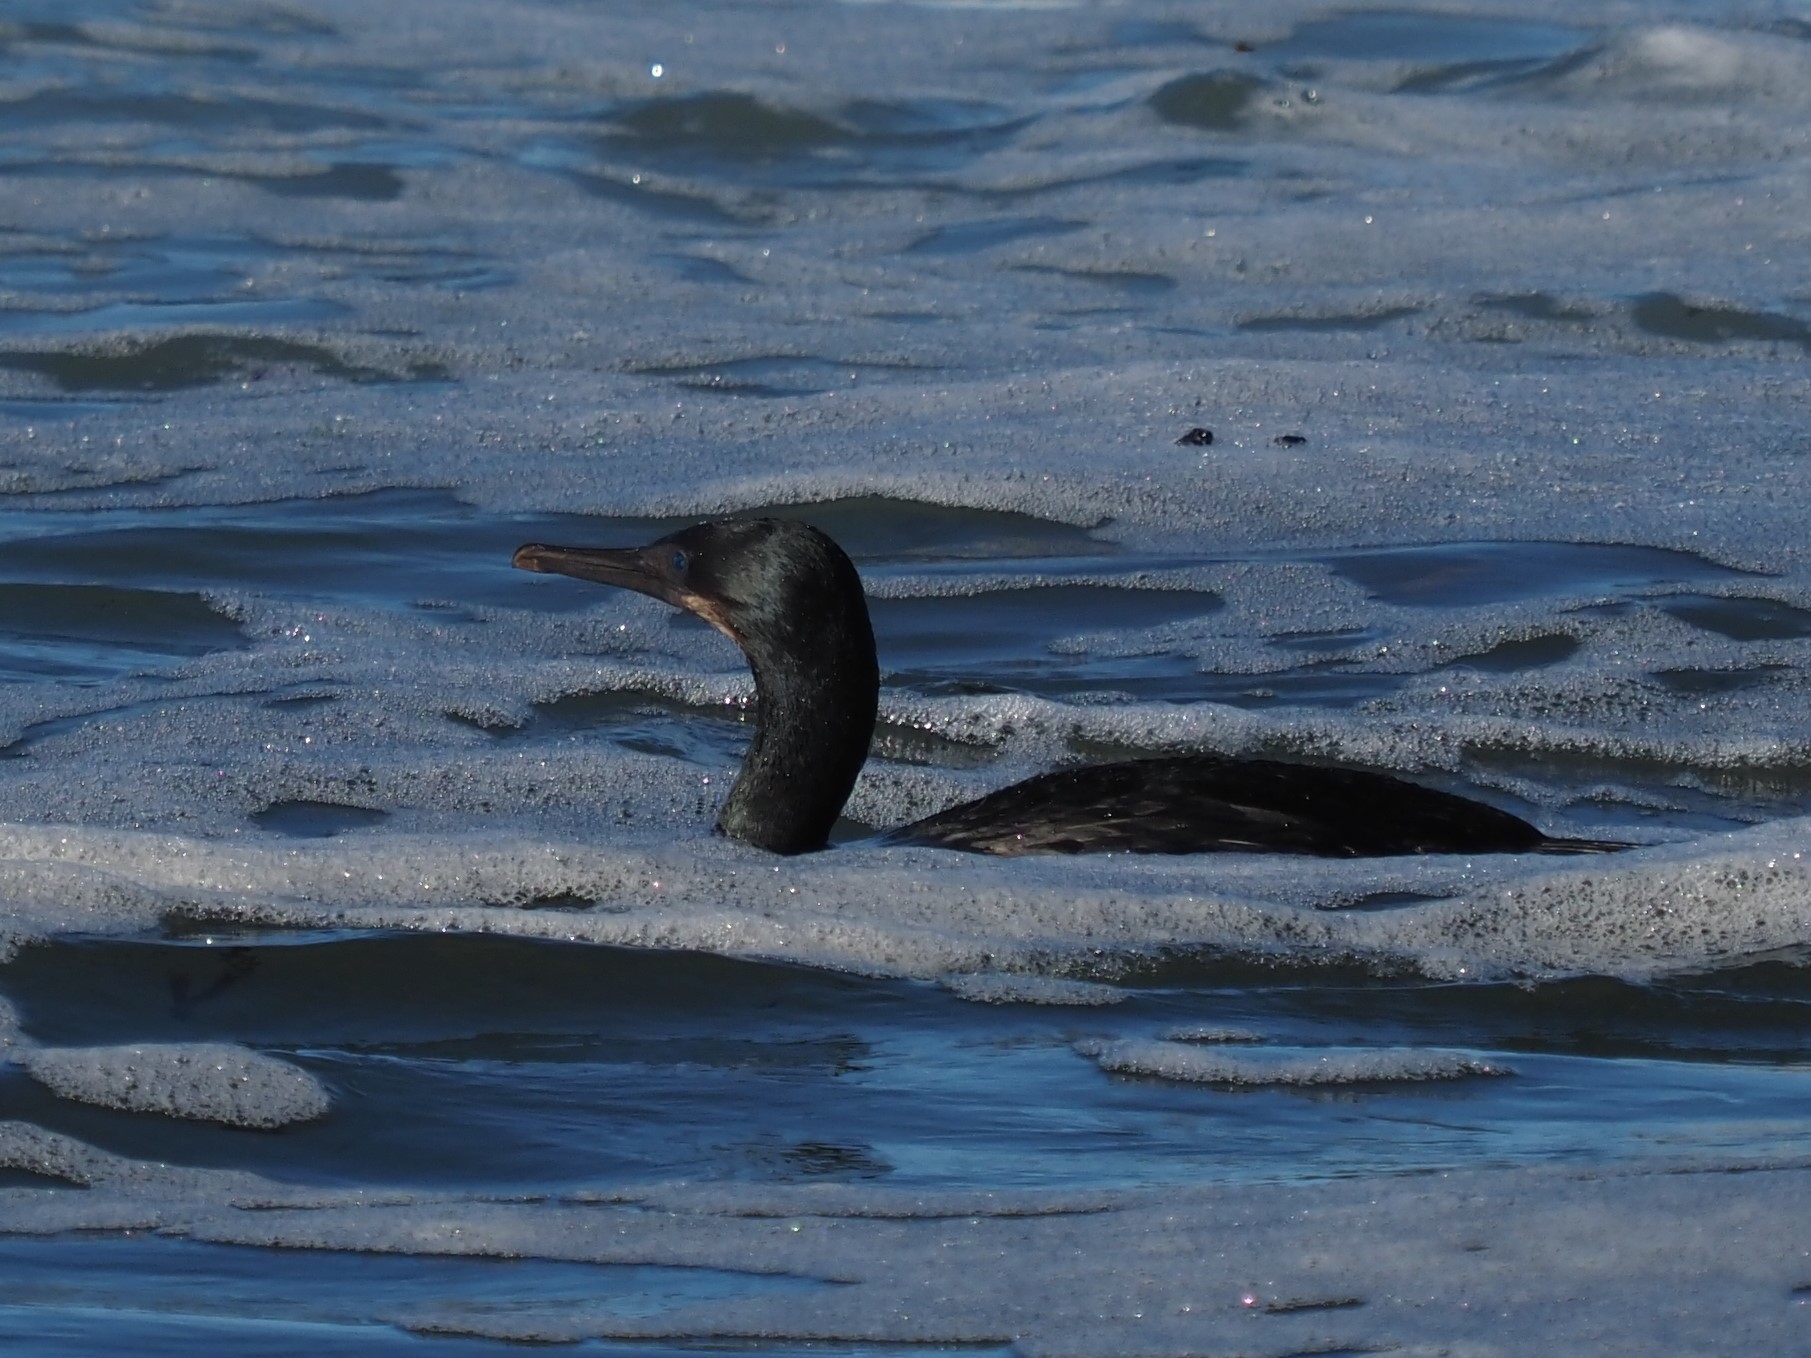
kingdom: Animalia
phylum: Chordata
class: Aves
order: Suliformes
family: Phalacrocoracidae
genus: Urile
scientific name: Urile penicillatus
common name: Brandt's cormorant
